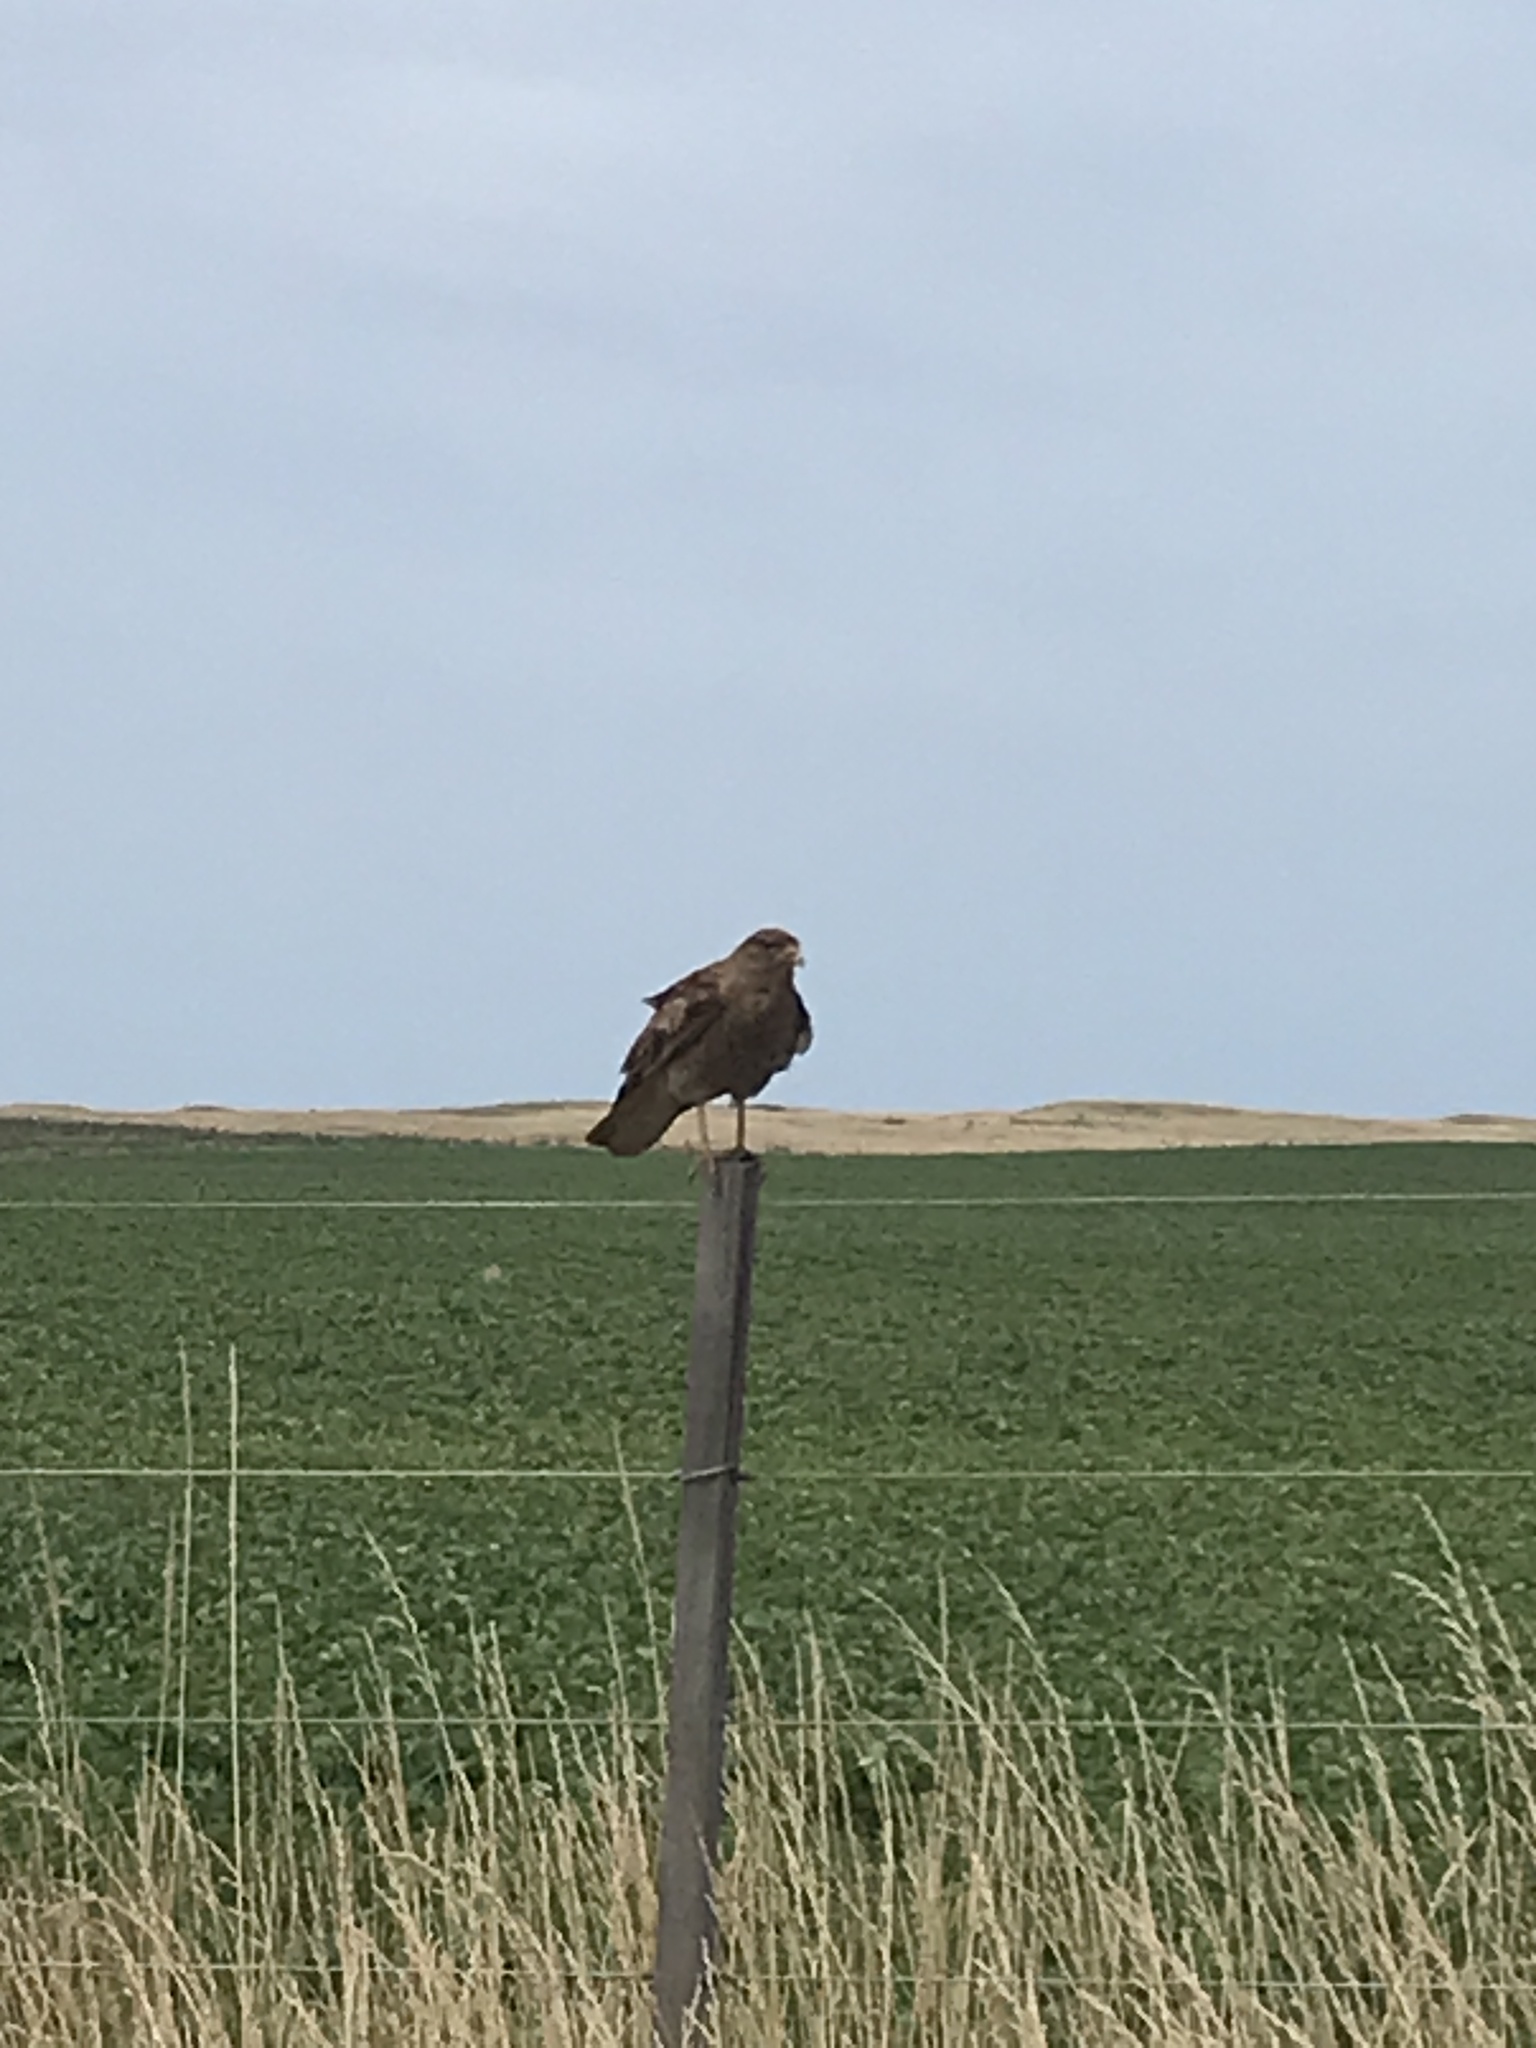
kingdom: Animalia
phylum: Chordata
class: Aves
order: Falconiformes
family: Falconidae
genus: Daptrius
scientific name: Daptrius
